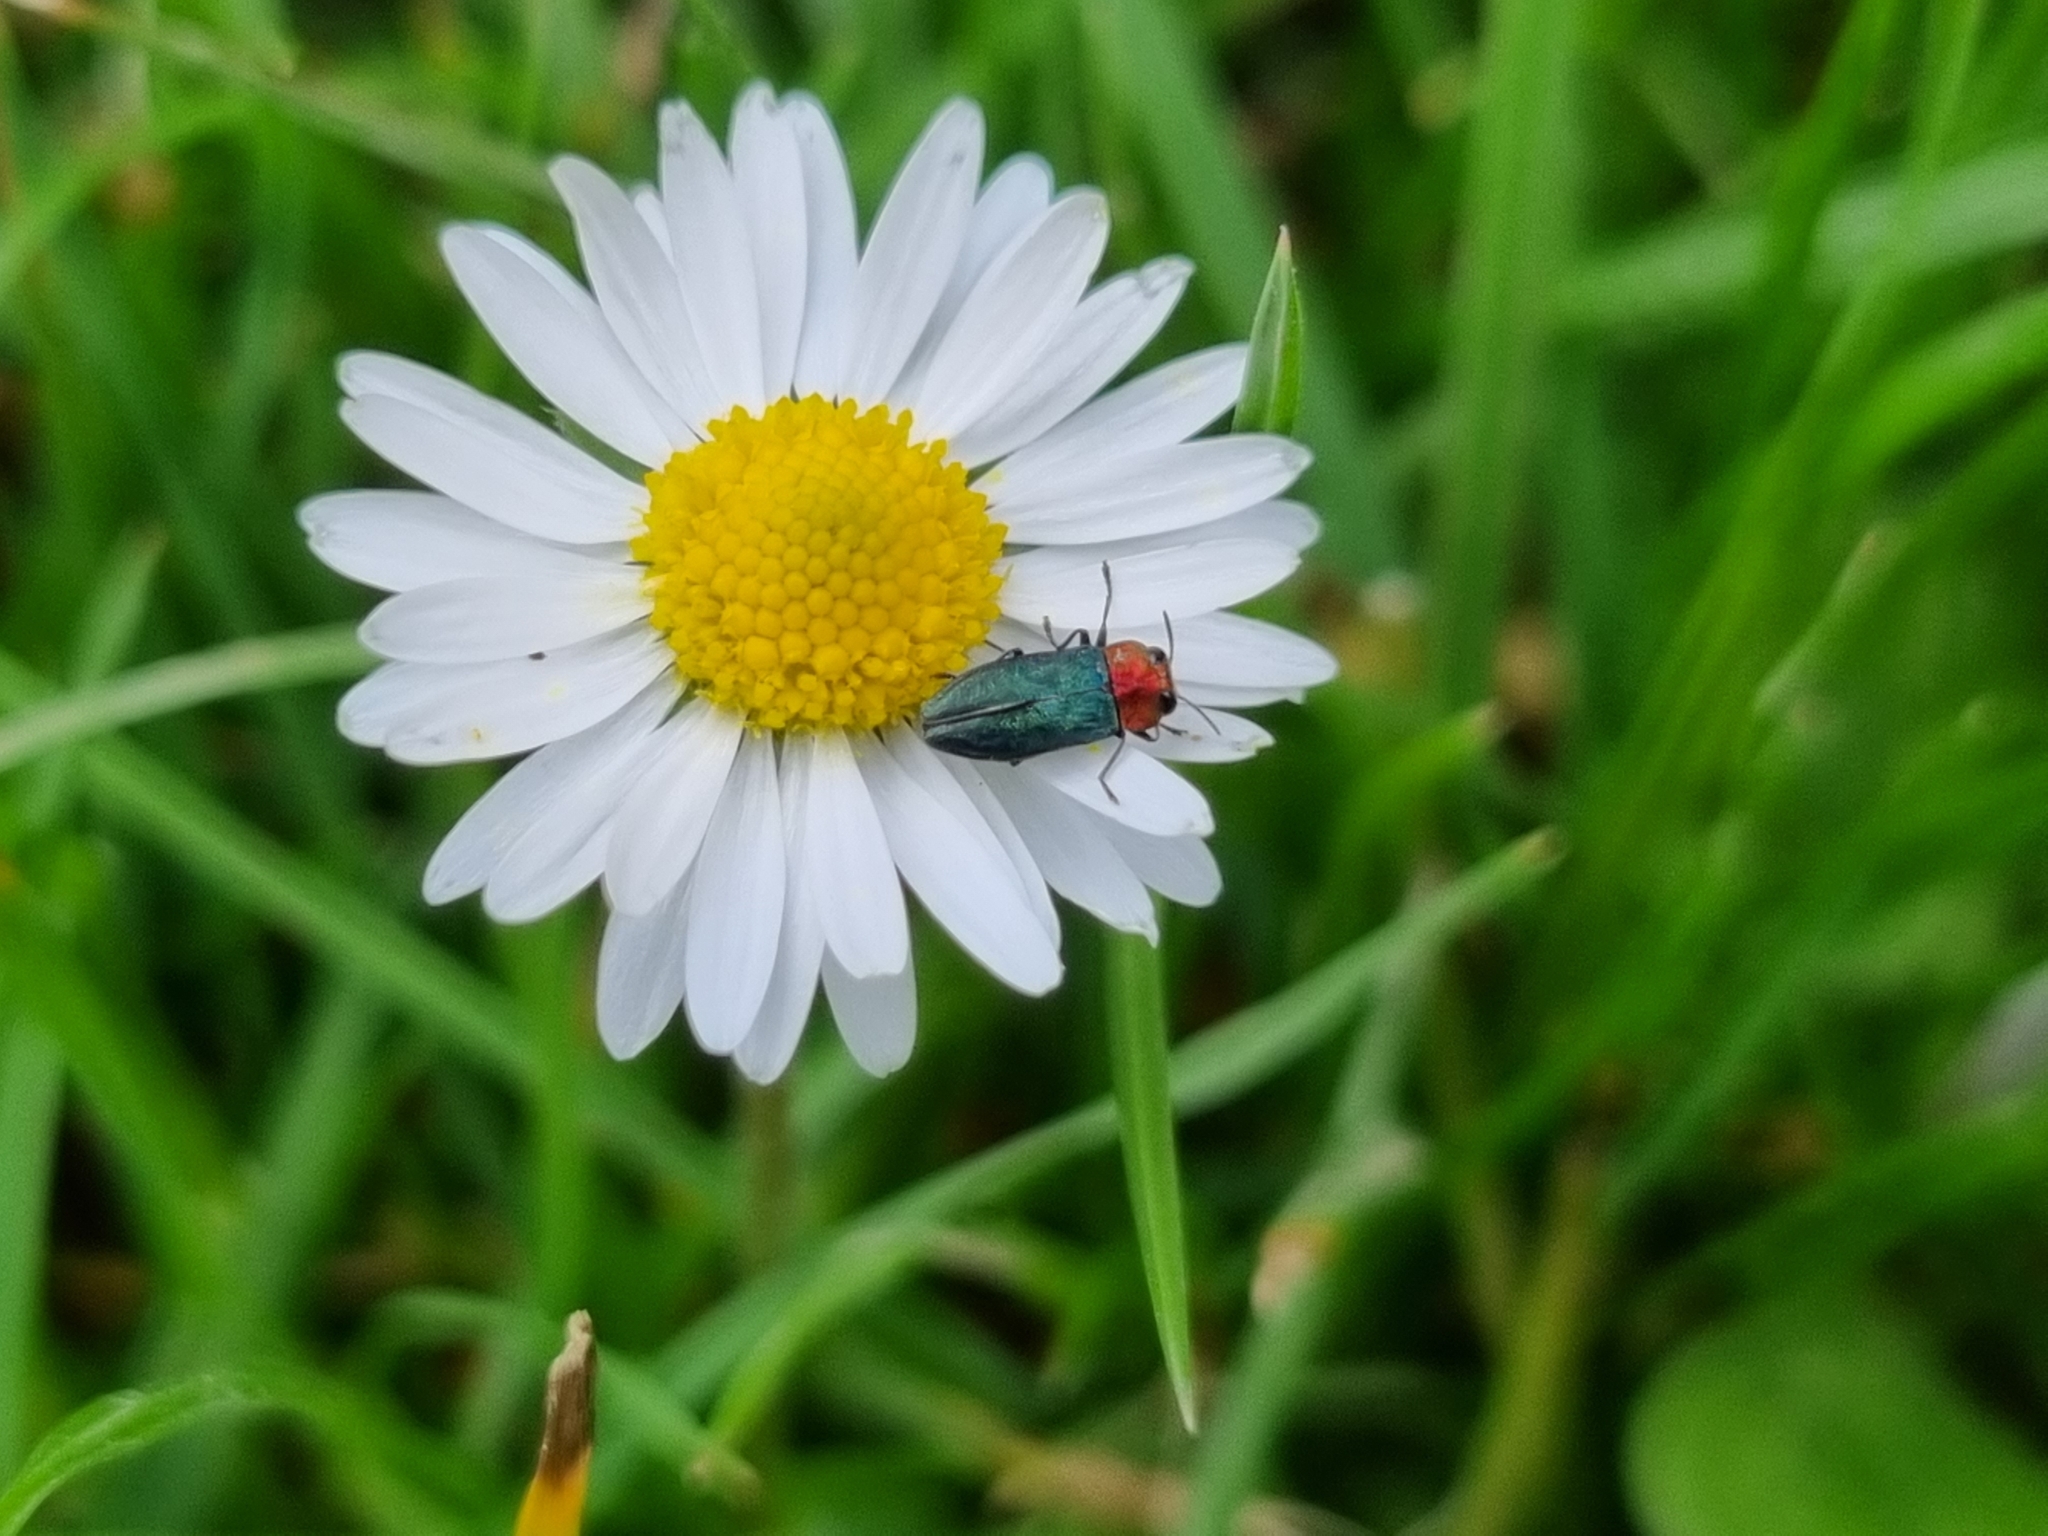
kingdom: Animalia
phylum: Arthropoda
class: Insecta
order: Coleoptera
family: Buprestidae
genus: Anthaxia
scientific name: Anthaxia nitidula
